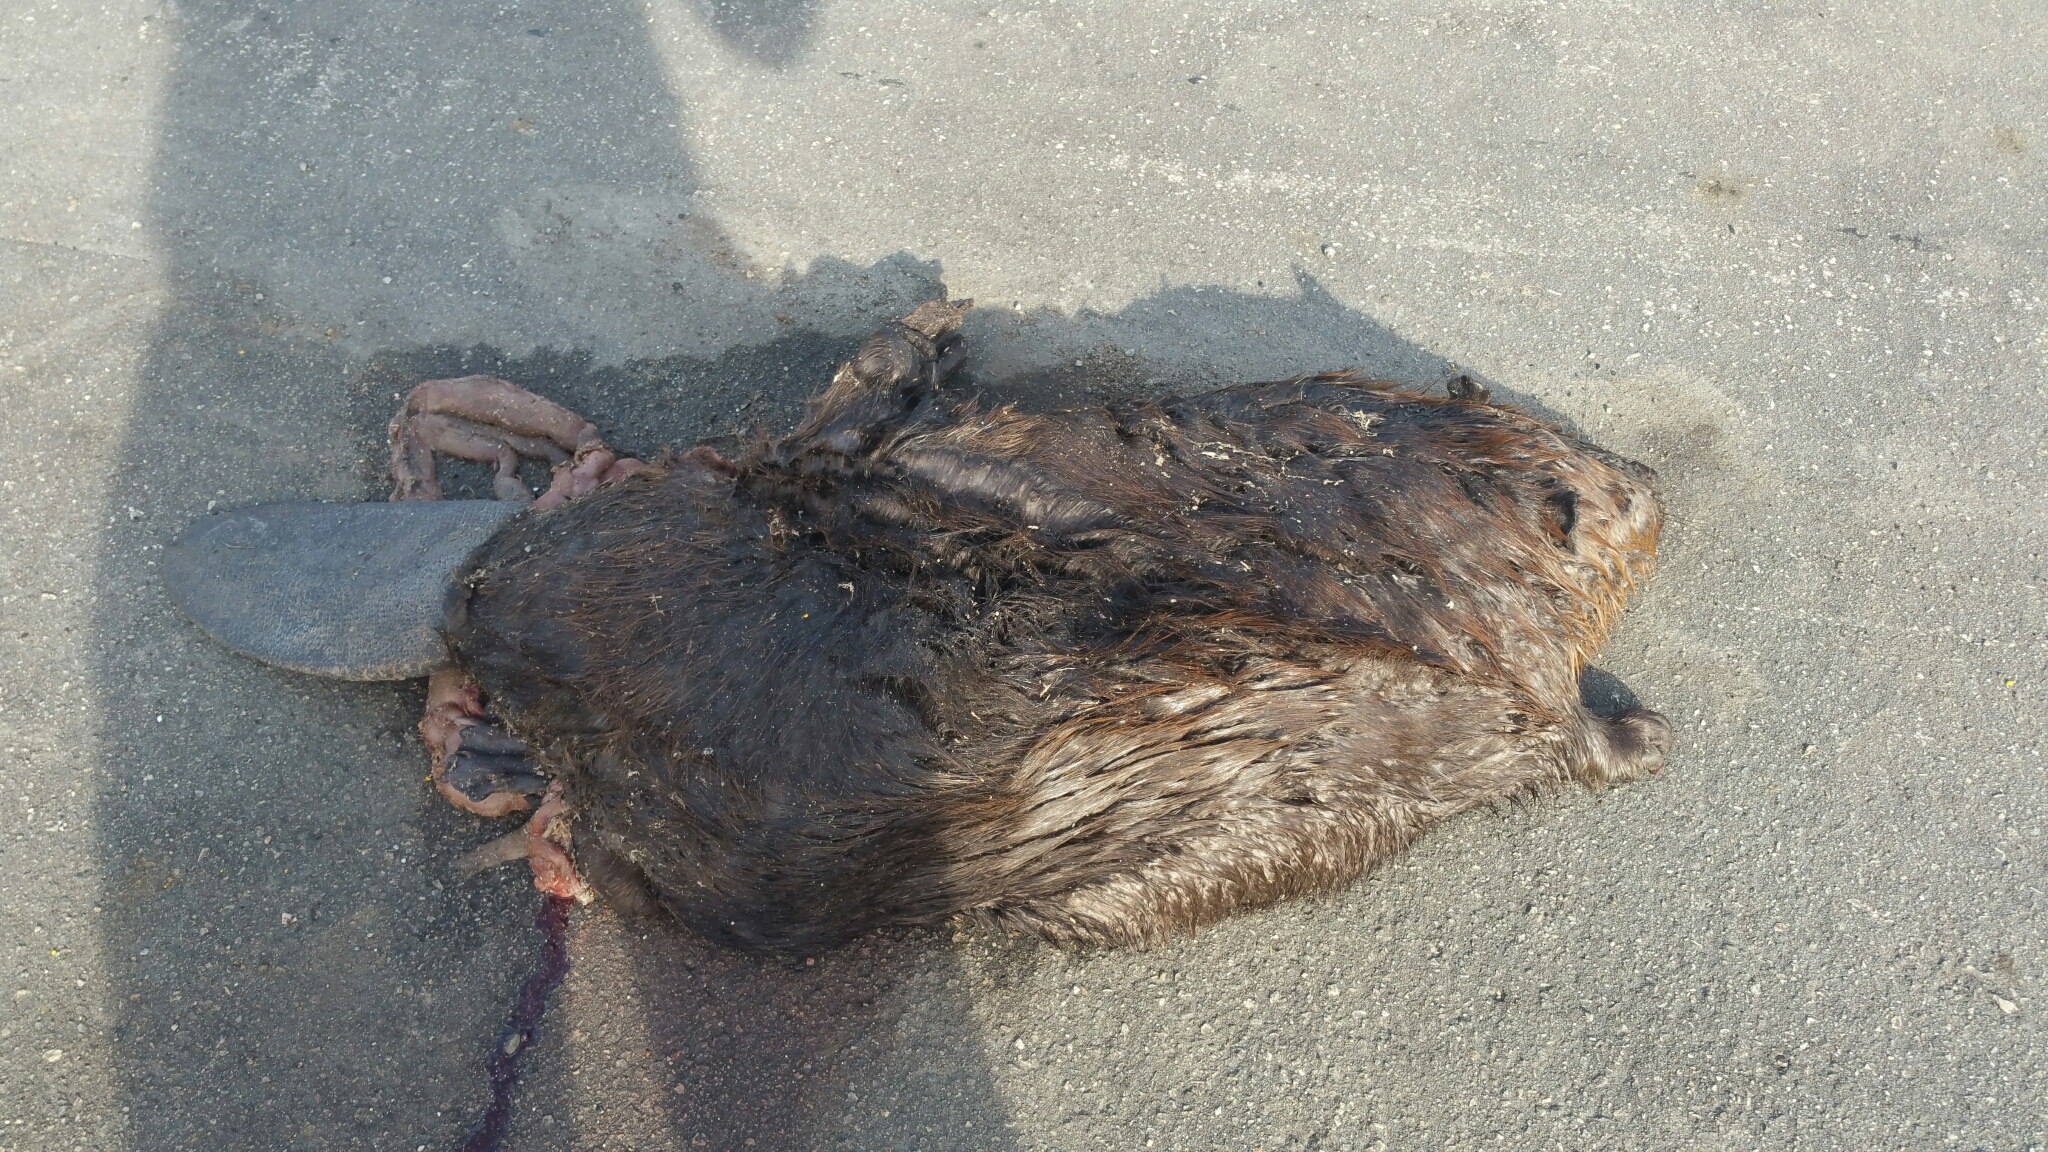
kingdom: Animalia
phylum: Chordata
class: Mammalia
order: Rodentia
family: Castoridae
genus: Castor
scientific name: Castor canadensis
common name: American beaver
